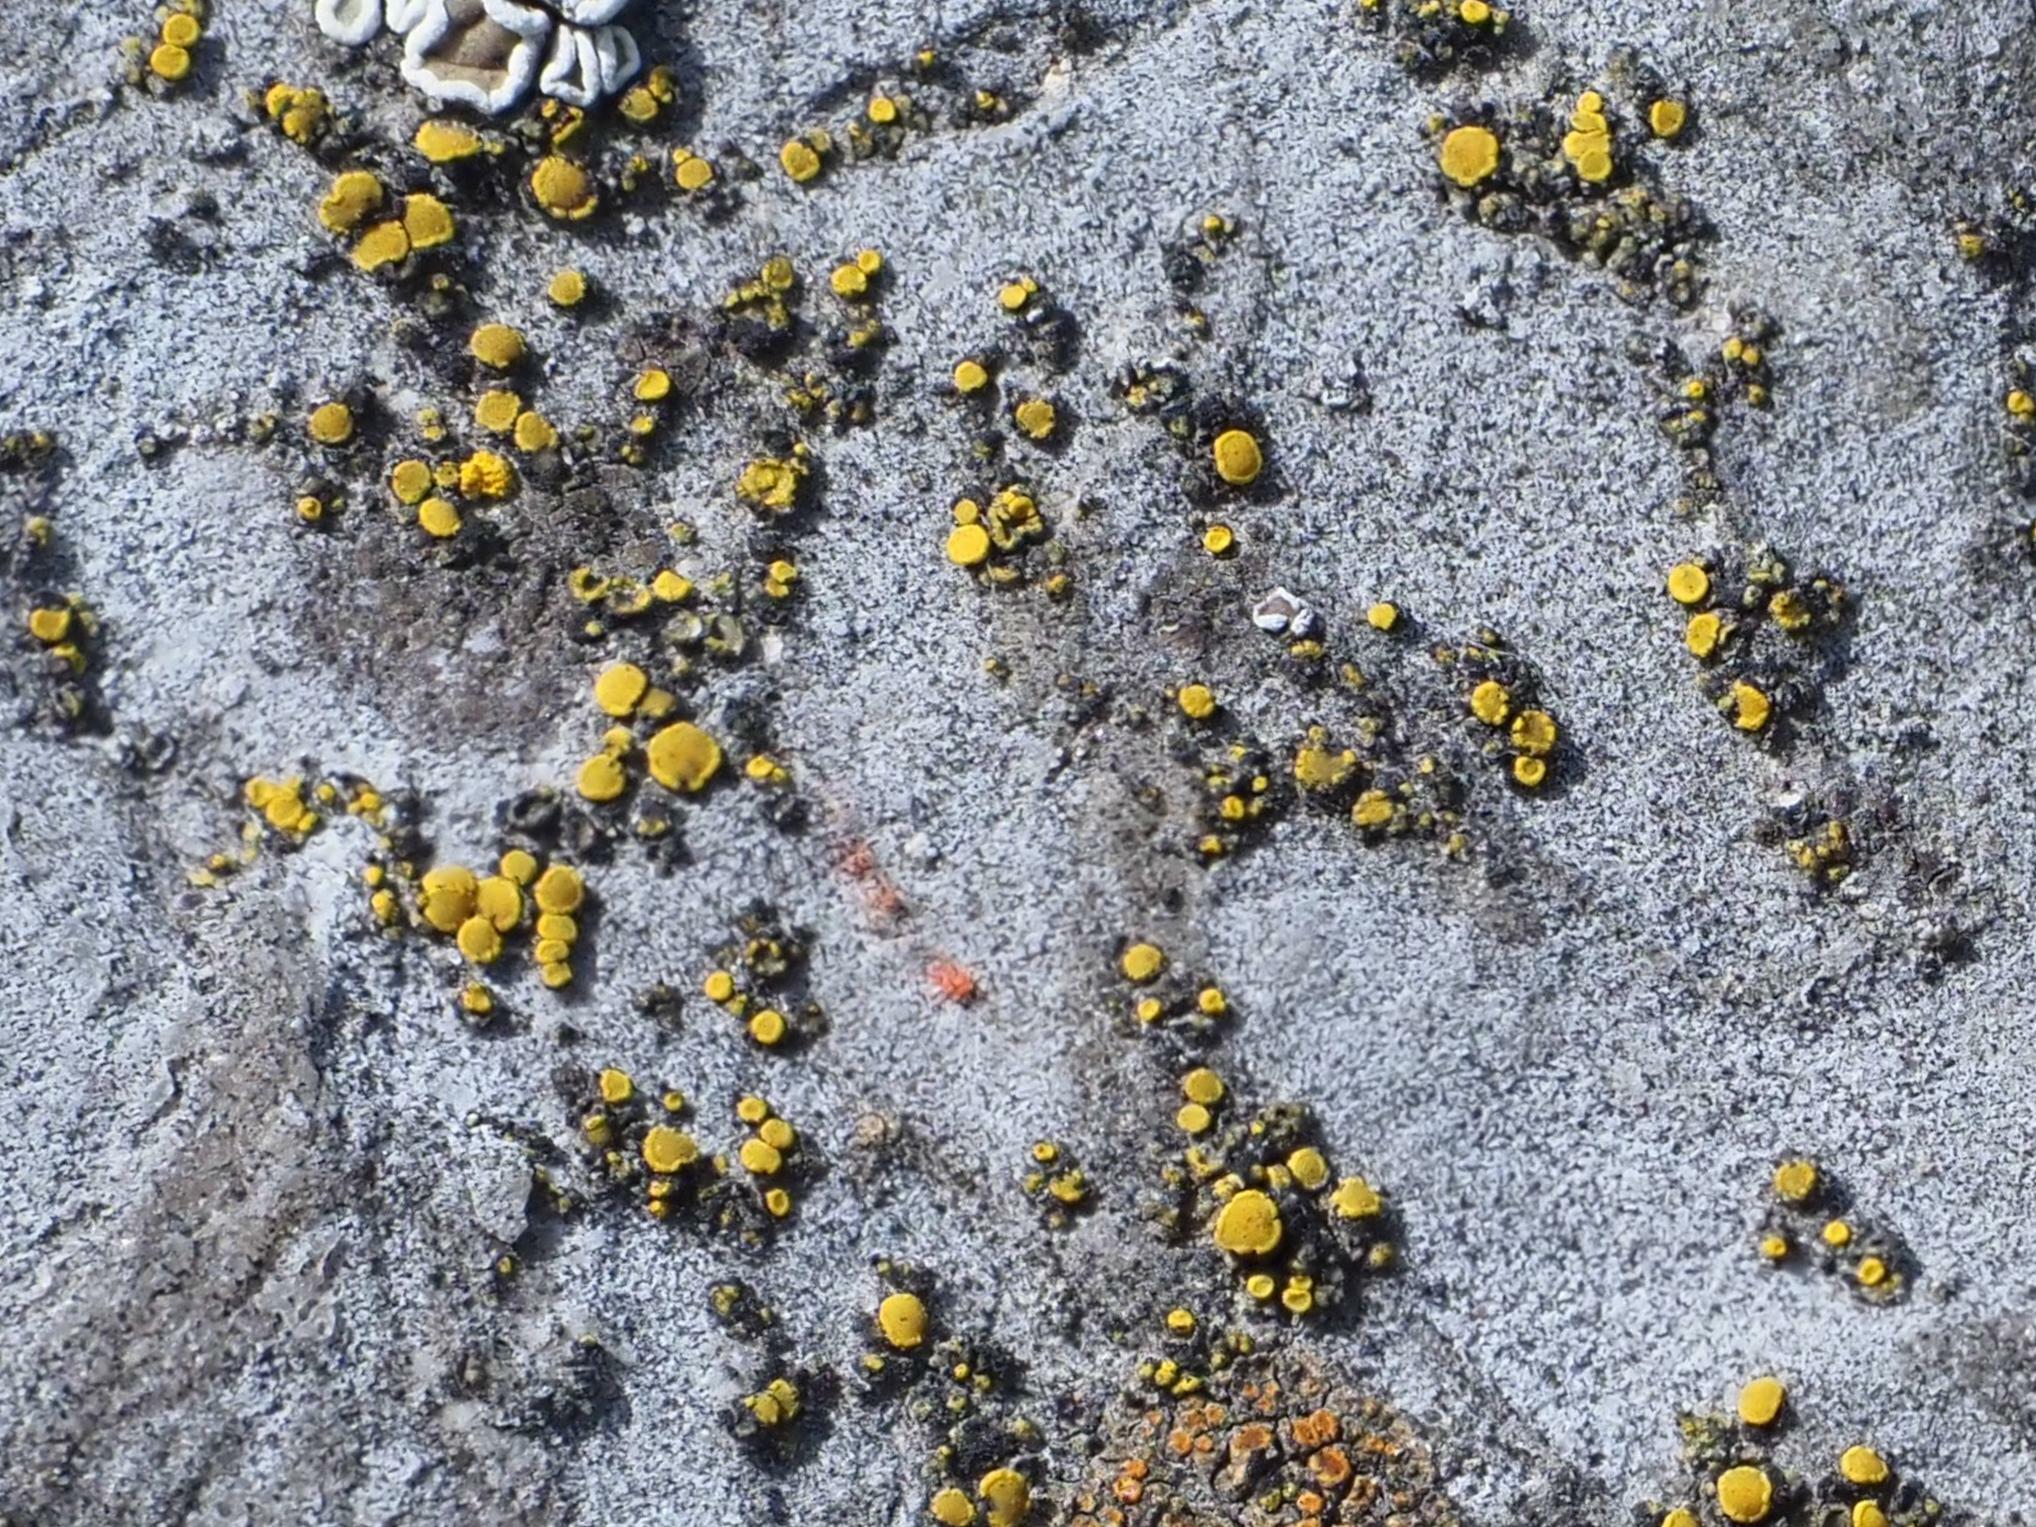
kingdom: Fungi
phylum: Ascomycota
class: Candelariomycetes
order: Candelariales
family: Candelariaceae
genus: Candelariella
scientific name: Candelariella aurella
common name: Hidden goldspeck lichen
